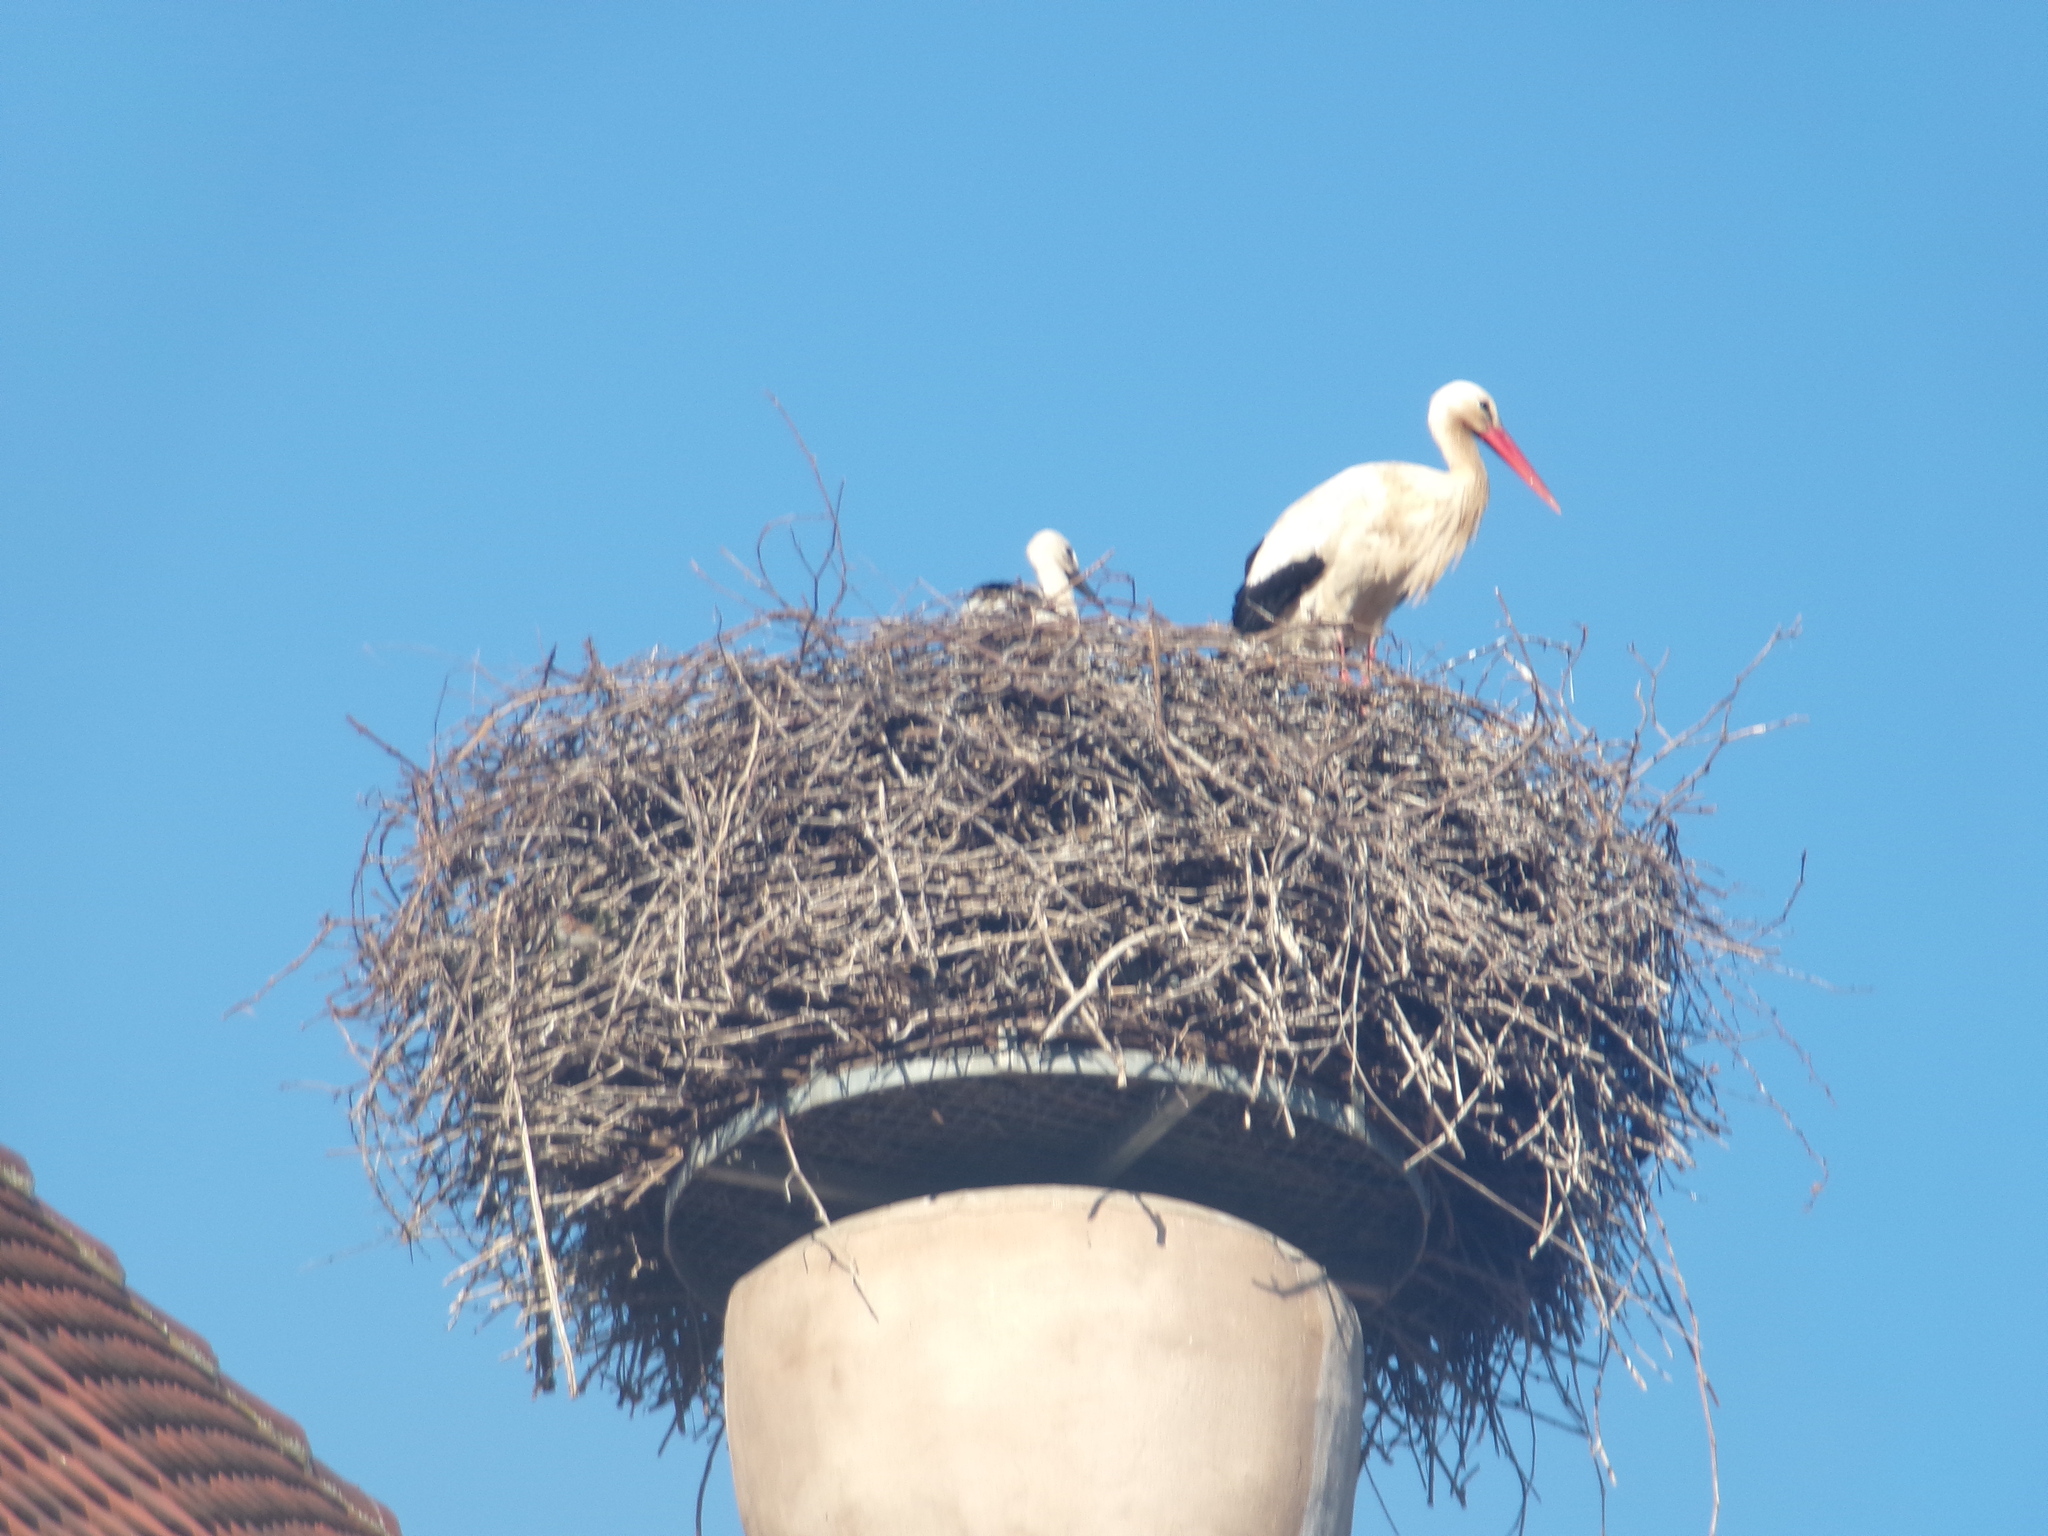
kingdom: Animalia
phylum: Chordata
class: Aves
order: Ciconiiformes
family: Ciconiidae
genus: Ciconia
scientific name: Ciconia ciconia
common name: White stork
